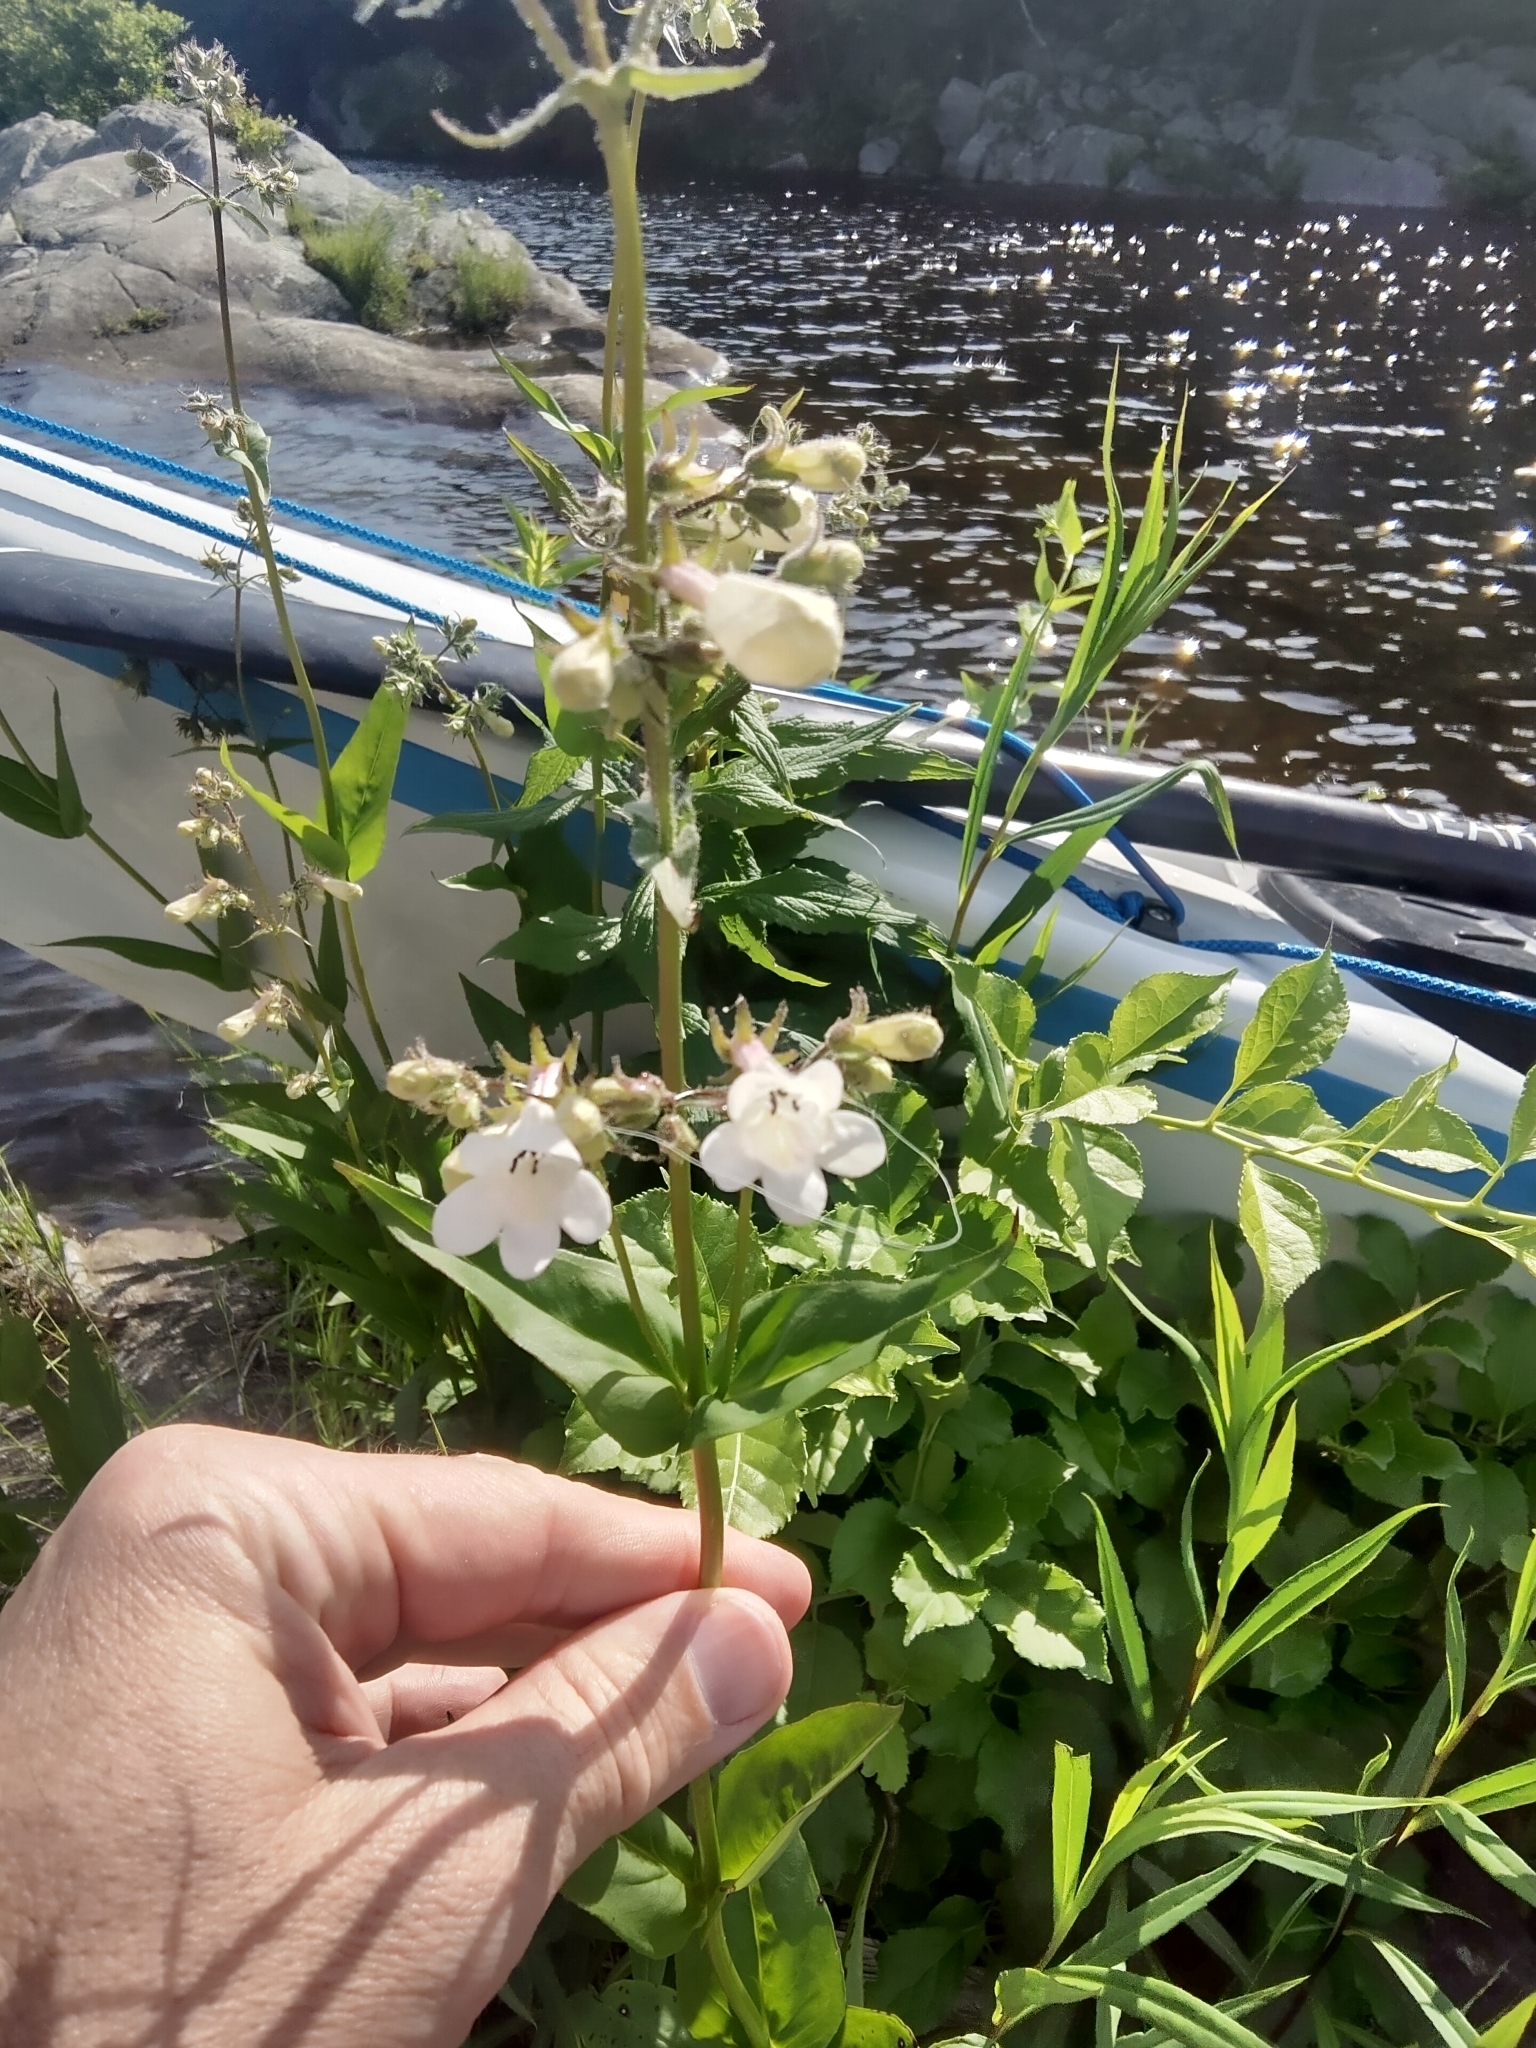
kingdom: Plantae
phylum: Tracheophyta
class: Magnoliopsida
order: Lamiales
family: Plantaginaceae
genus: Penstemon
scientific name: Penstemon digitalis
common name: Foxglove beardtongue
